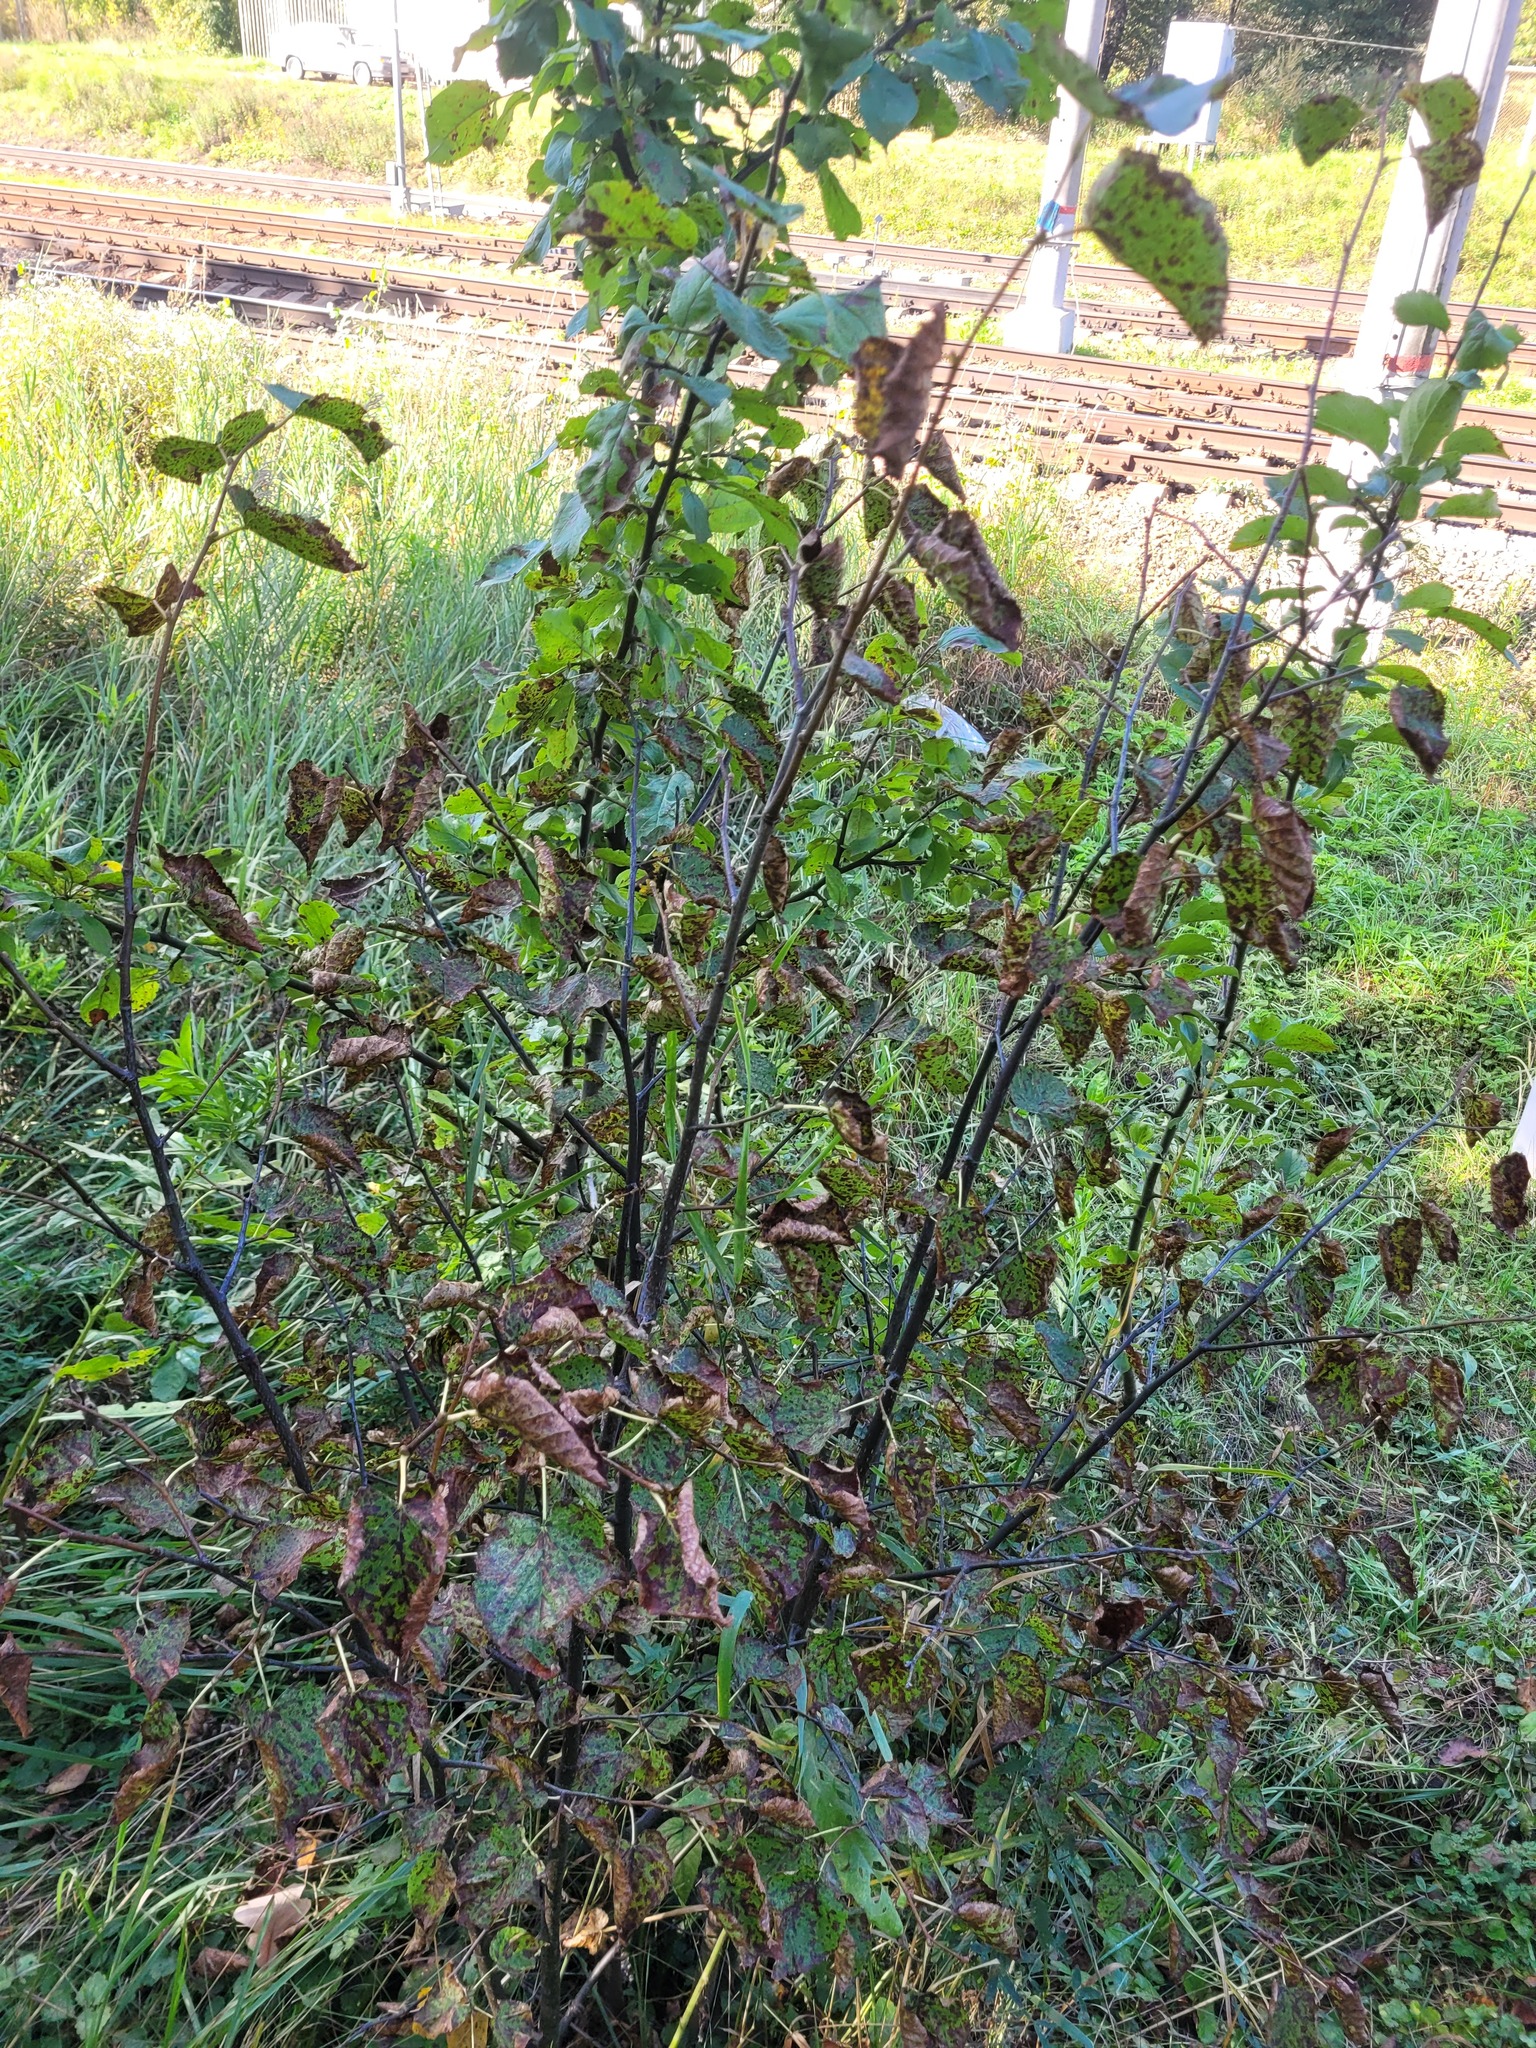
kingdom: Plantae
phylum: Tracheophyta
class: Magnoliopsida
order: Malvales
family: Malvaceae
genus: Tilia
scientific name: Tilia cordata
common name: Small-leaved lime
